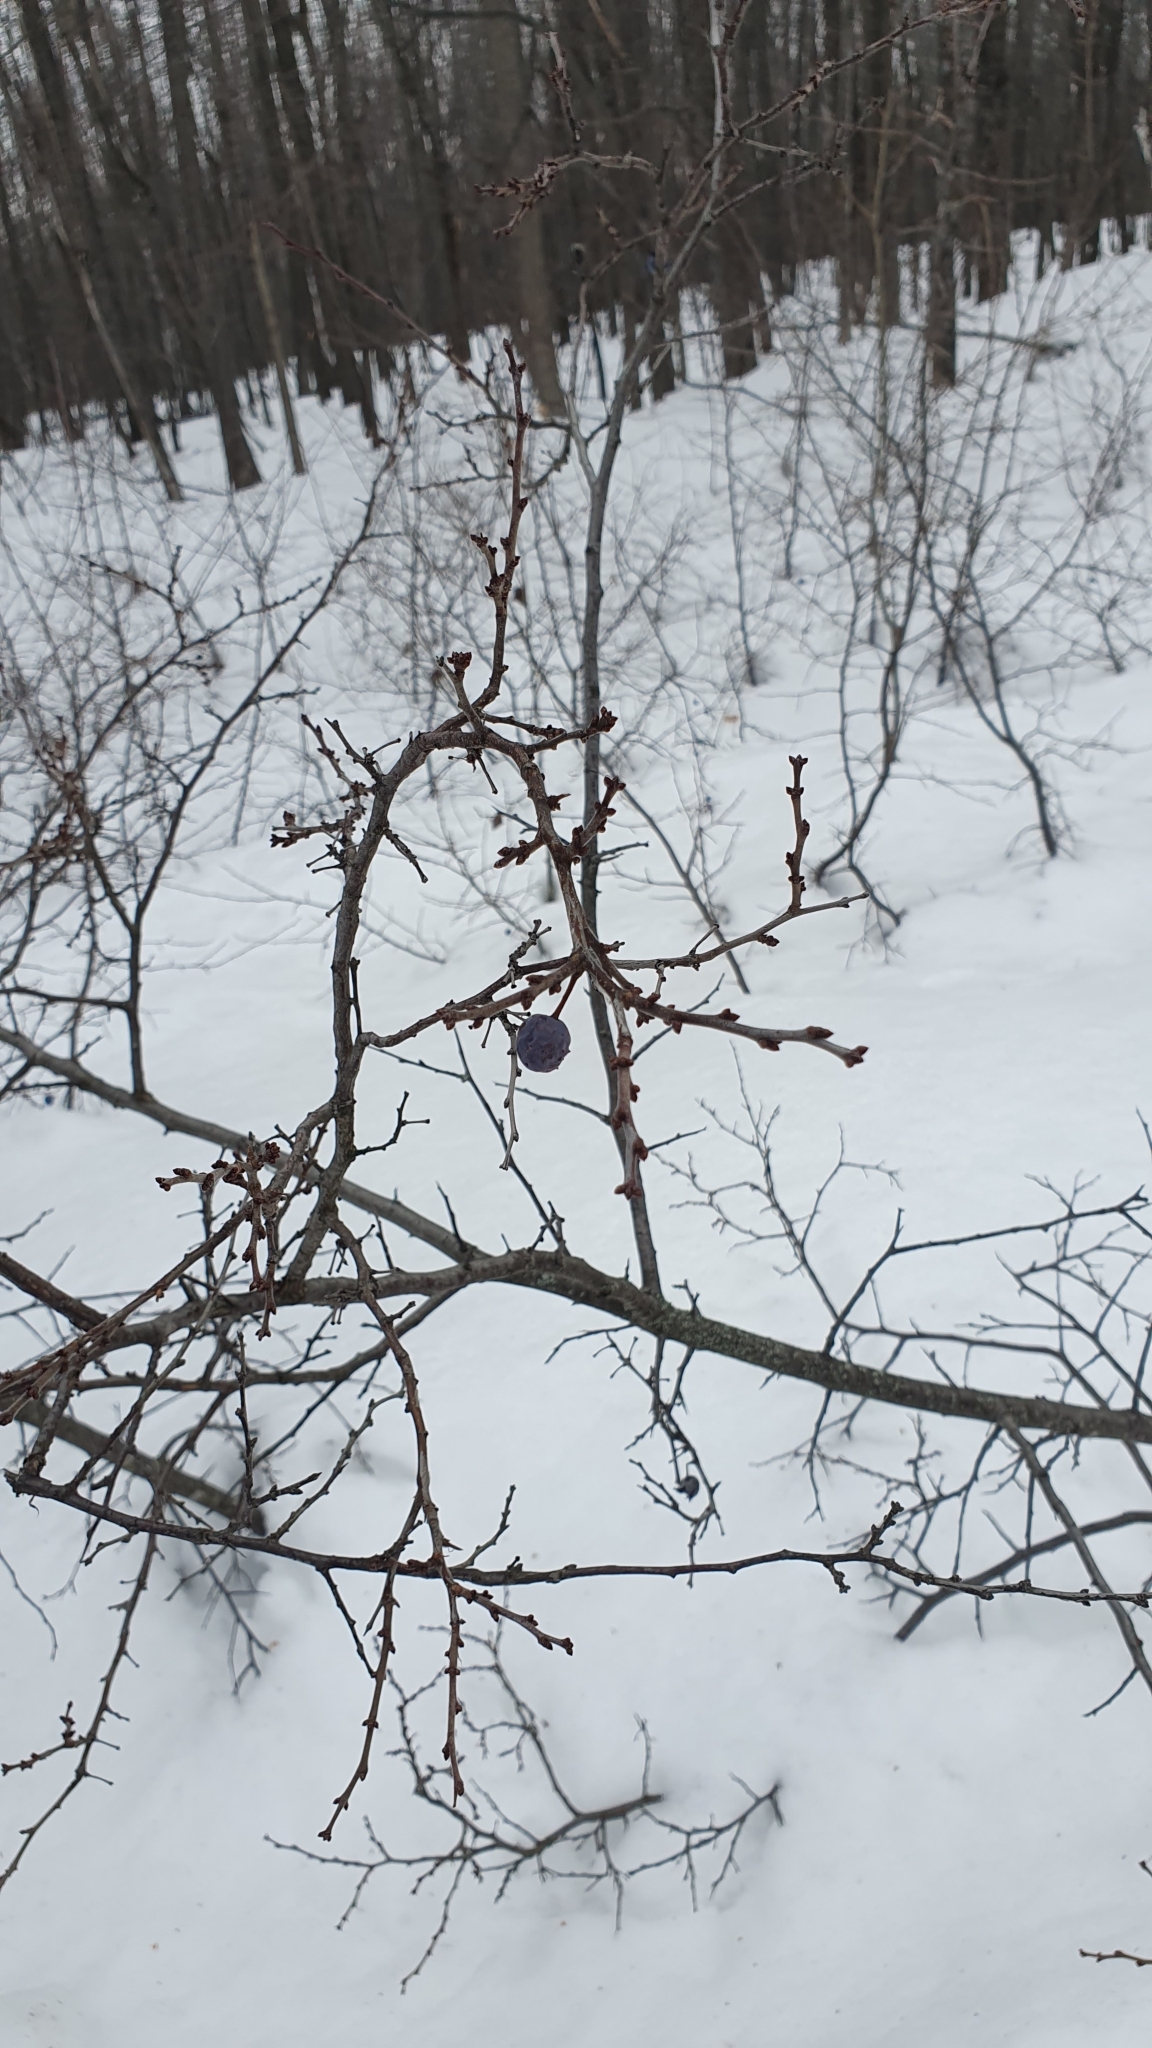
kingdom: Plantae
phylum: Tracheophyta
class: Magnoliopsida
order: Rosales
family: Rosaceae
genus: Prunus
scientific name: Prunus spinosa
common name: Blackthorn
